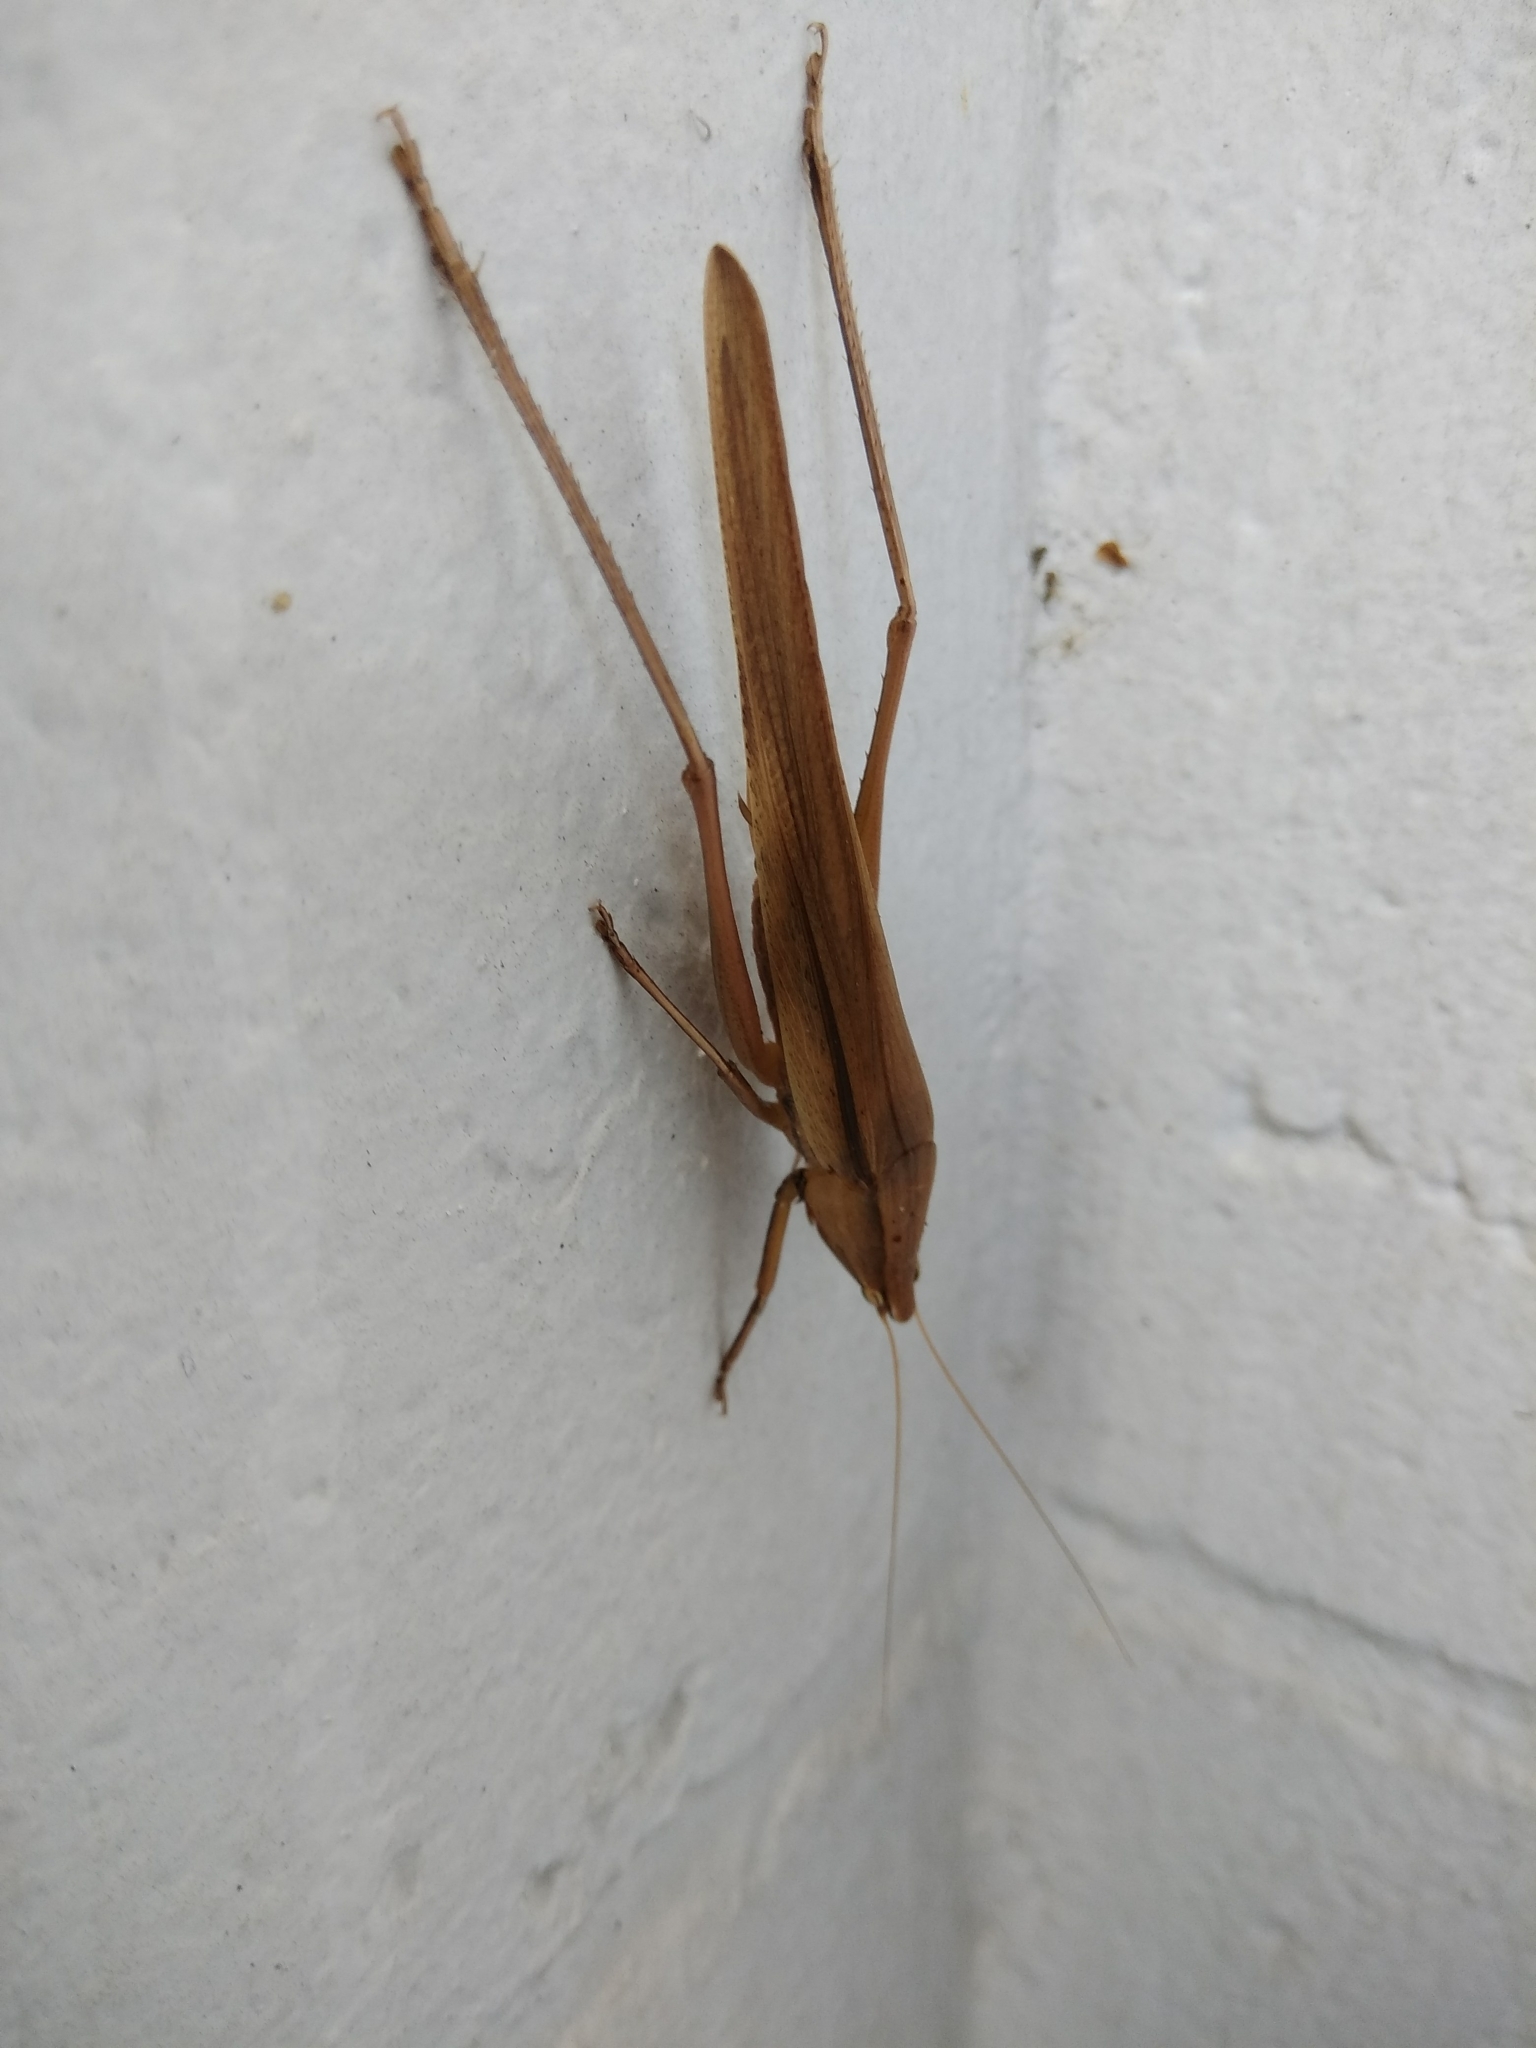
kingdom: Animalia
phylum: Arthropoda
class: Insecta
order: Orthoptera
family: Tettigoniidae
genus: Neoconocephalus
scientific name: Neoconocephalus triops
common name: Broad-tipped conehead
